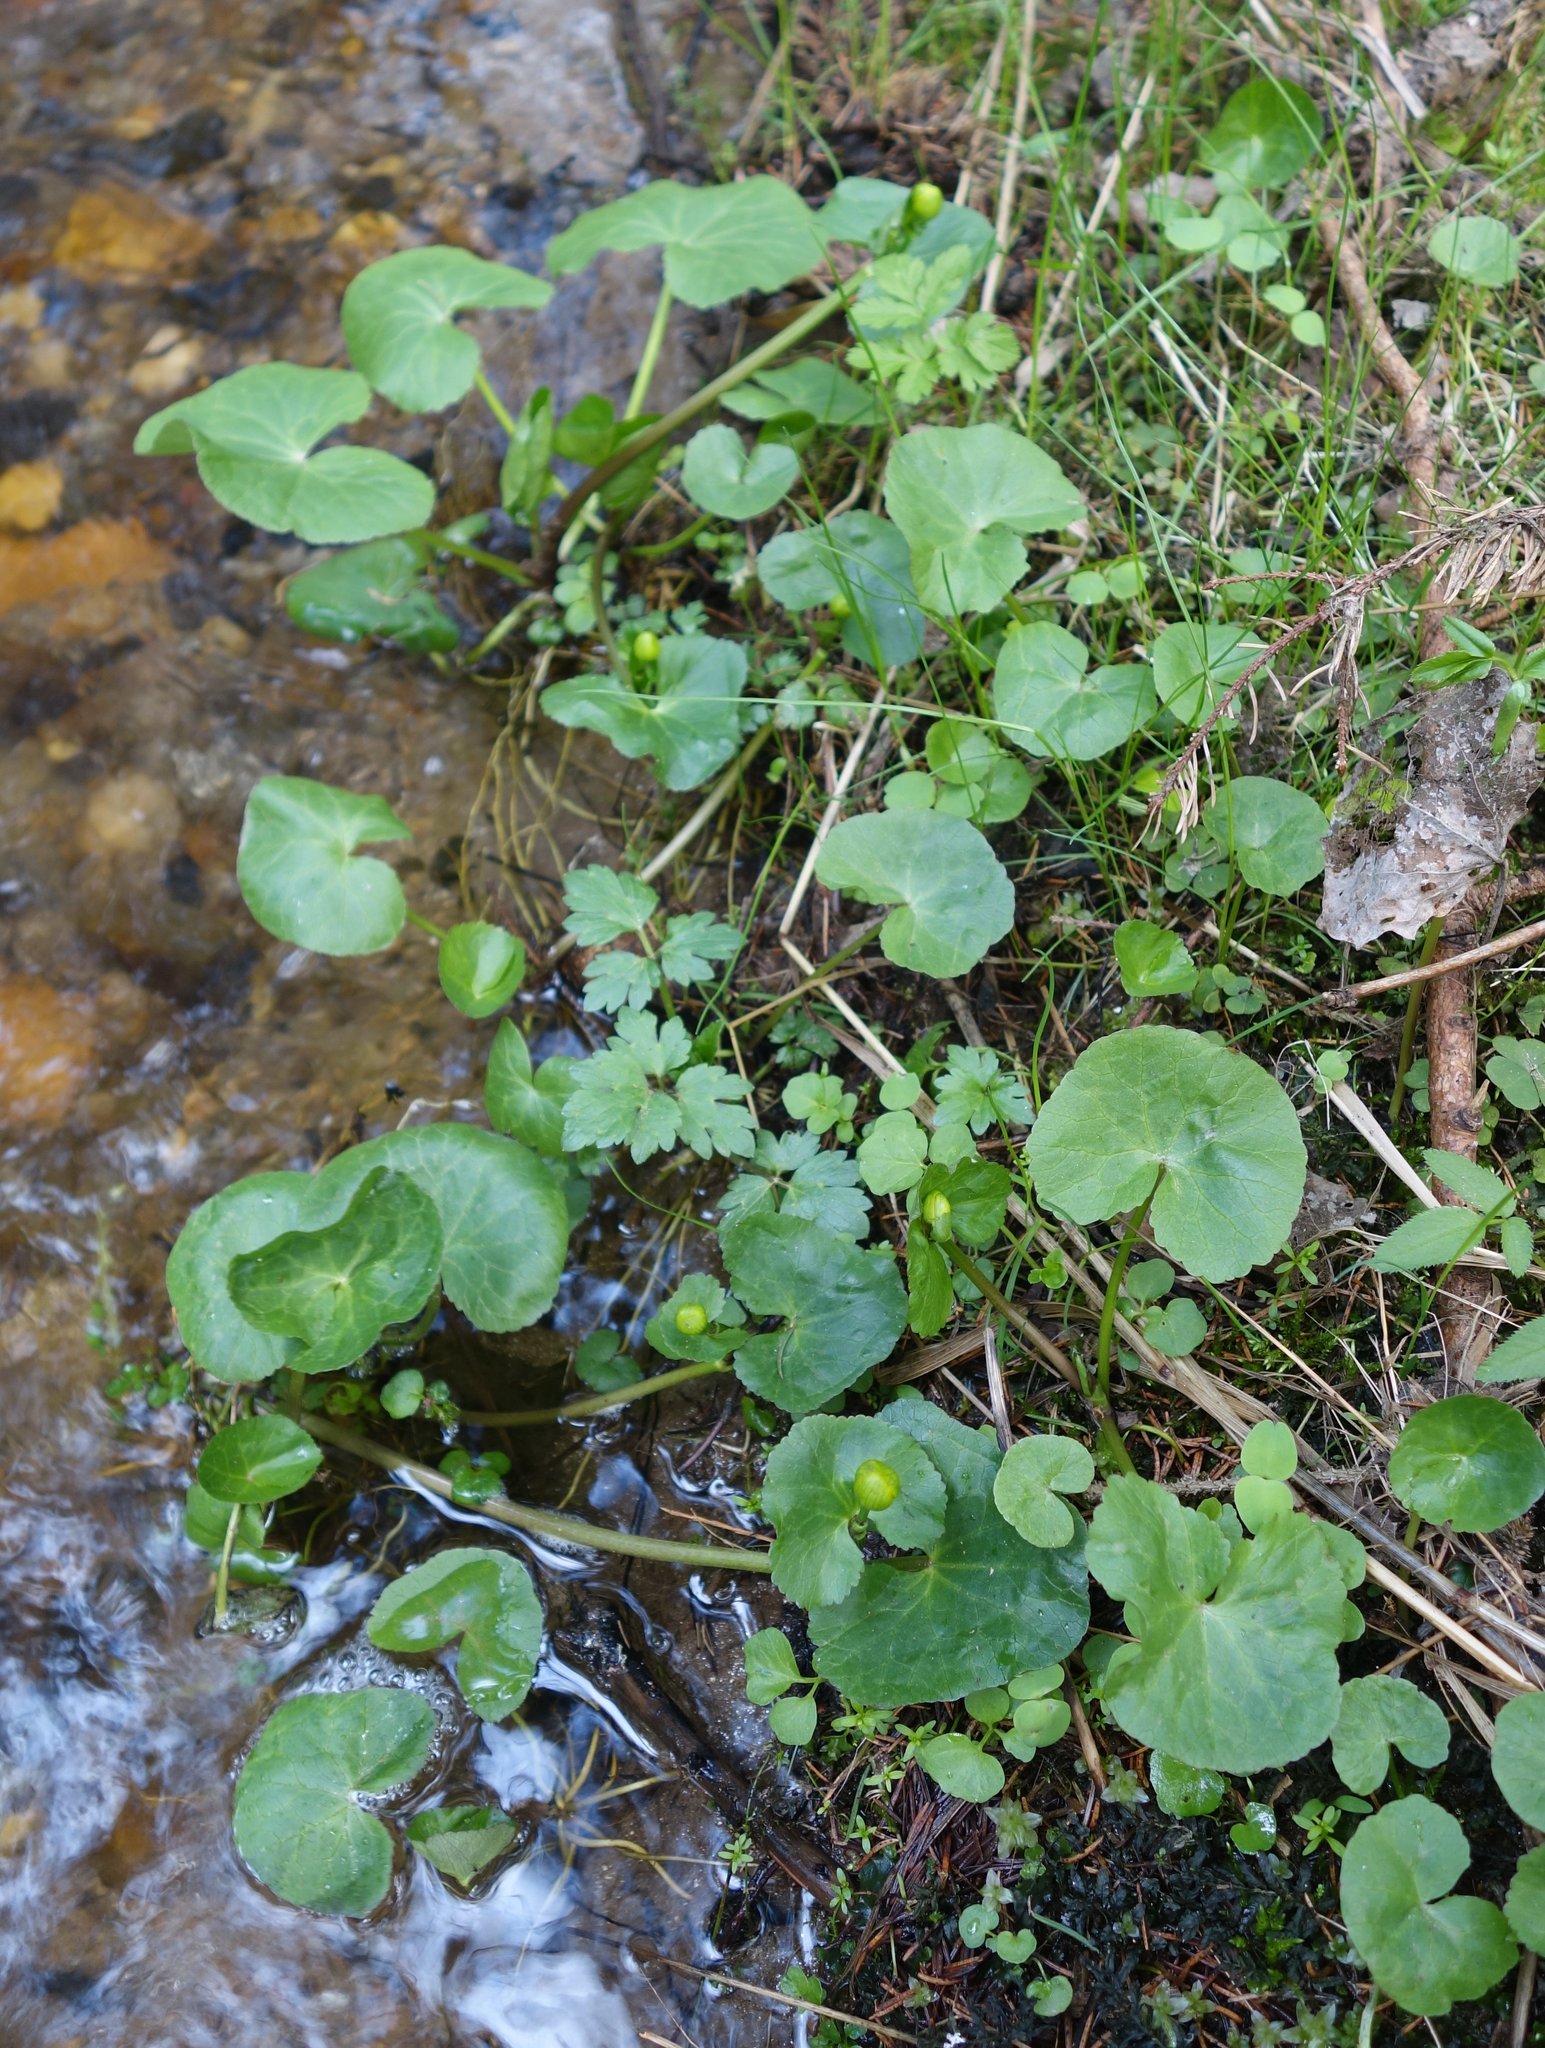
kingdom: Plantae
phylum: Tracheophyta
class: Magnoliopsida
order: Ranunculales
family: Ranunculaceae
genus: Caltha
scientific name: Caltha palustris
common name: Marsh marigold
